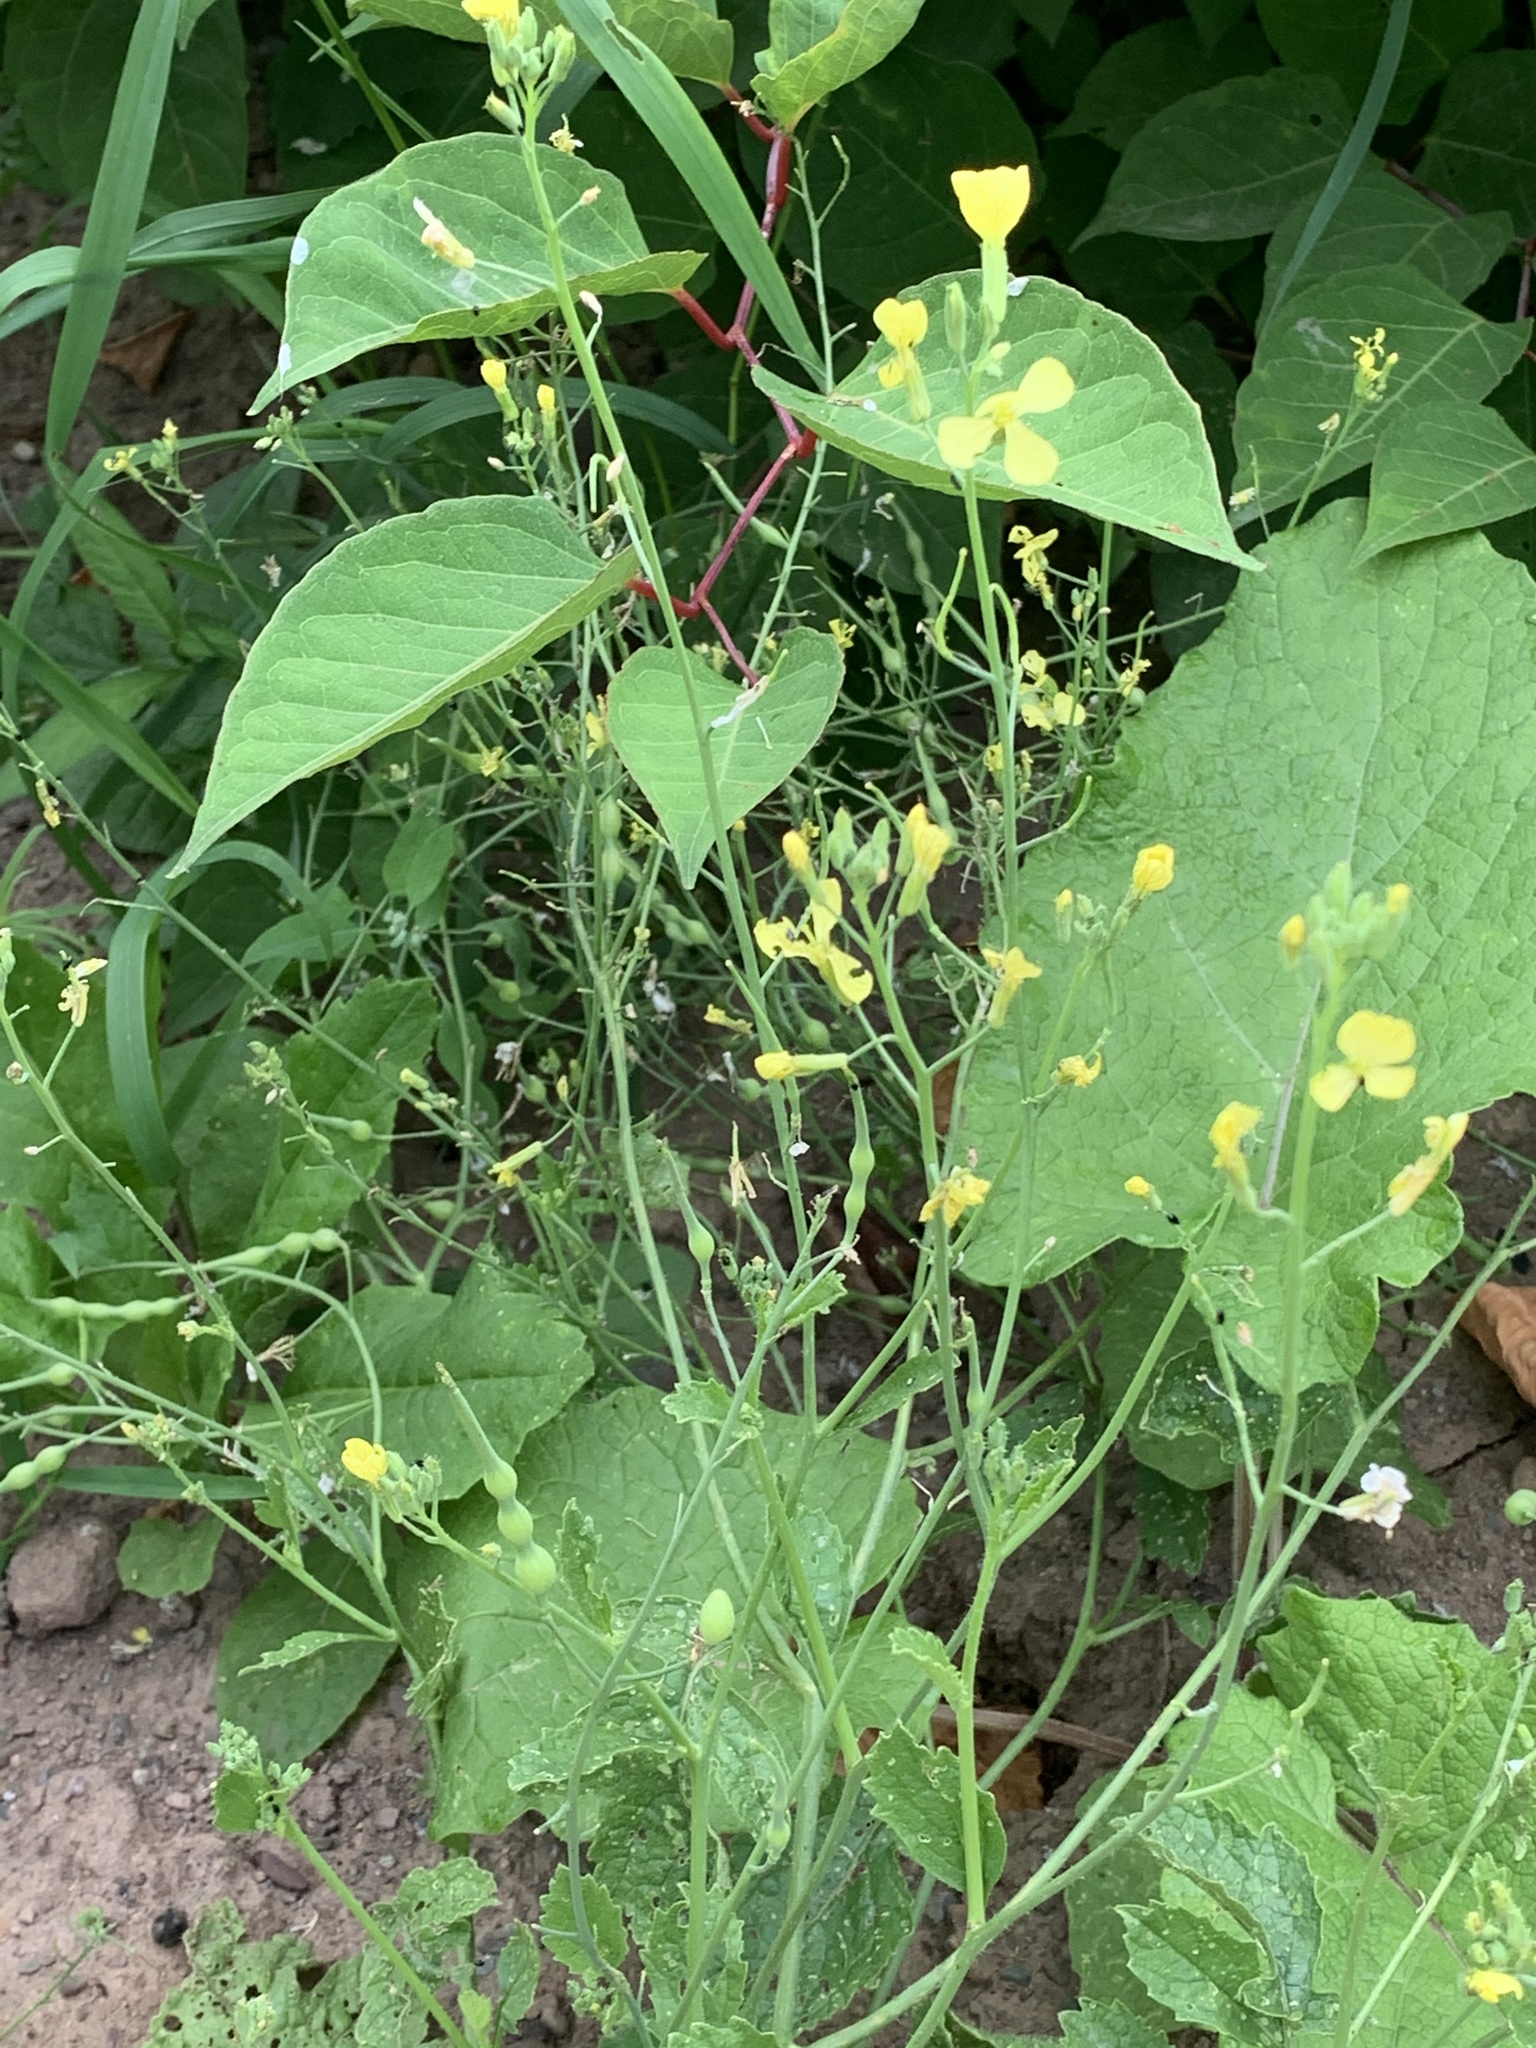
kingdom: Plantae
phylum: Tracheophyta
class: Magnoliopsida
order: Brassicales
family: Brassicaceae
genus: Raphanus
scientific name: Raphanus raphanistrum
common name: Wild radish
